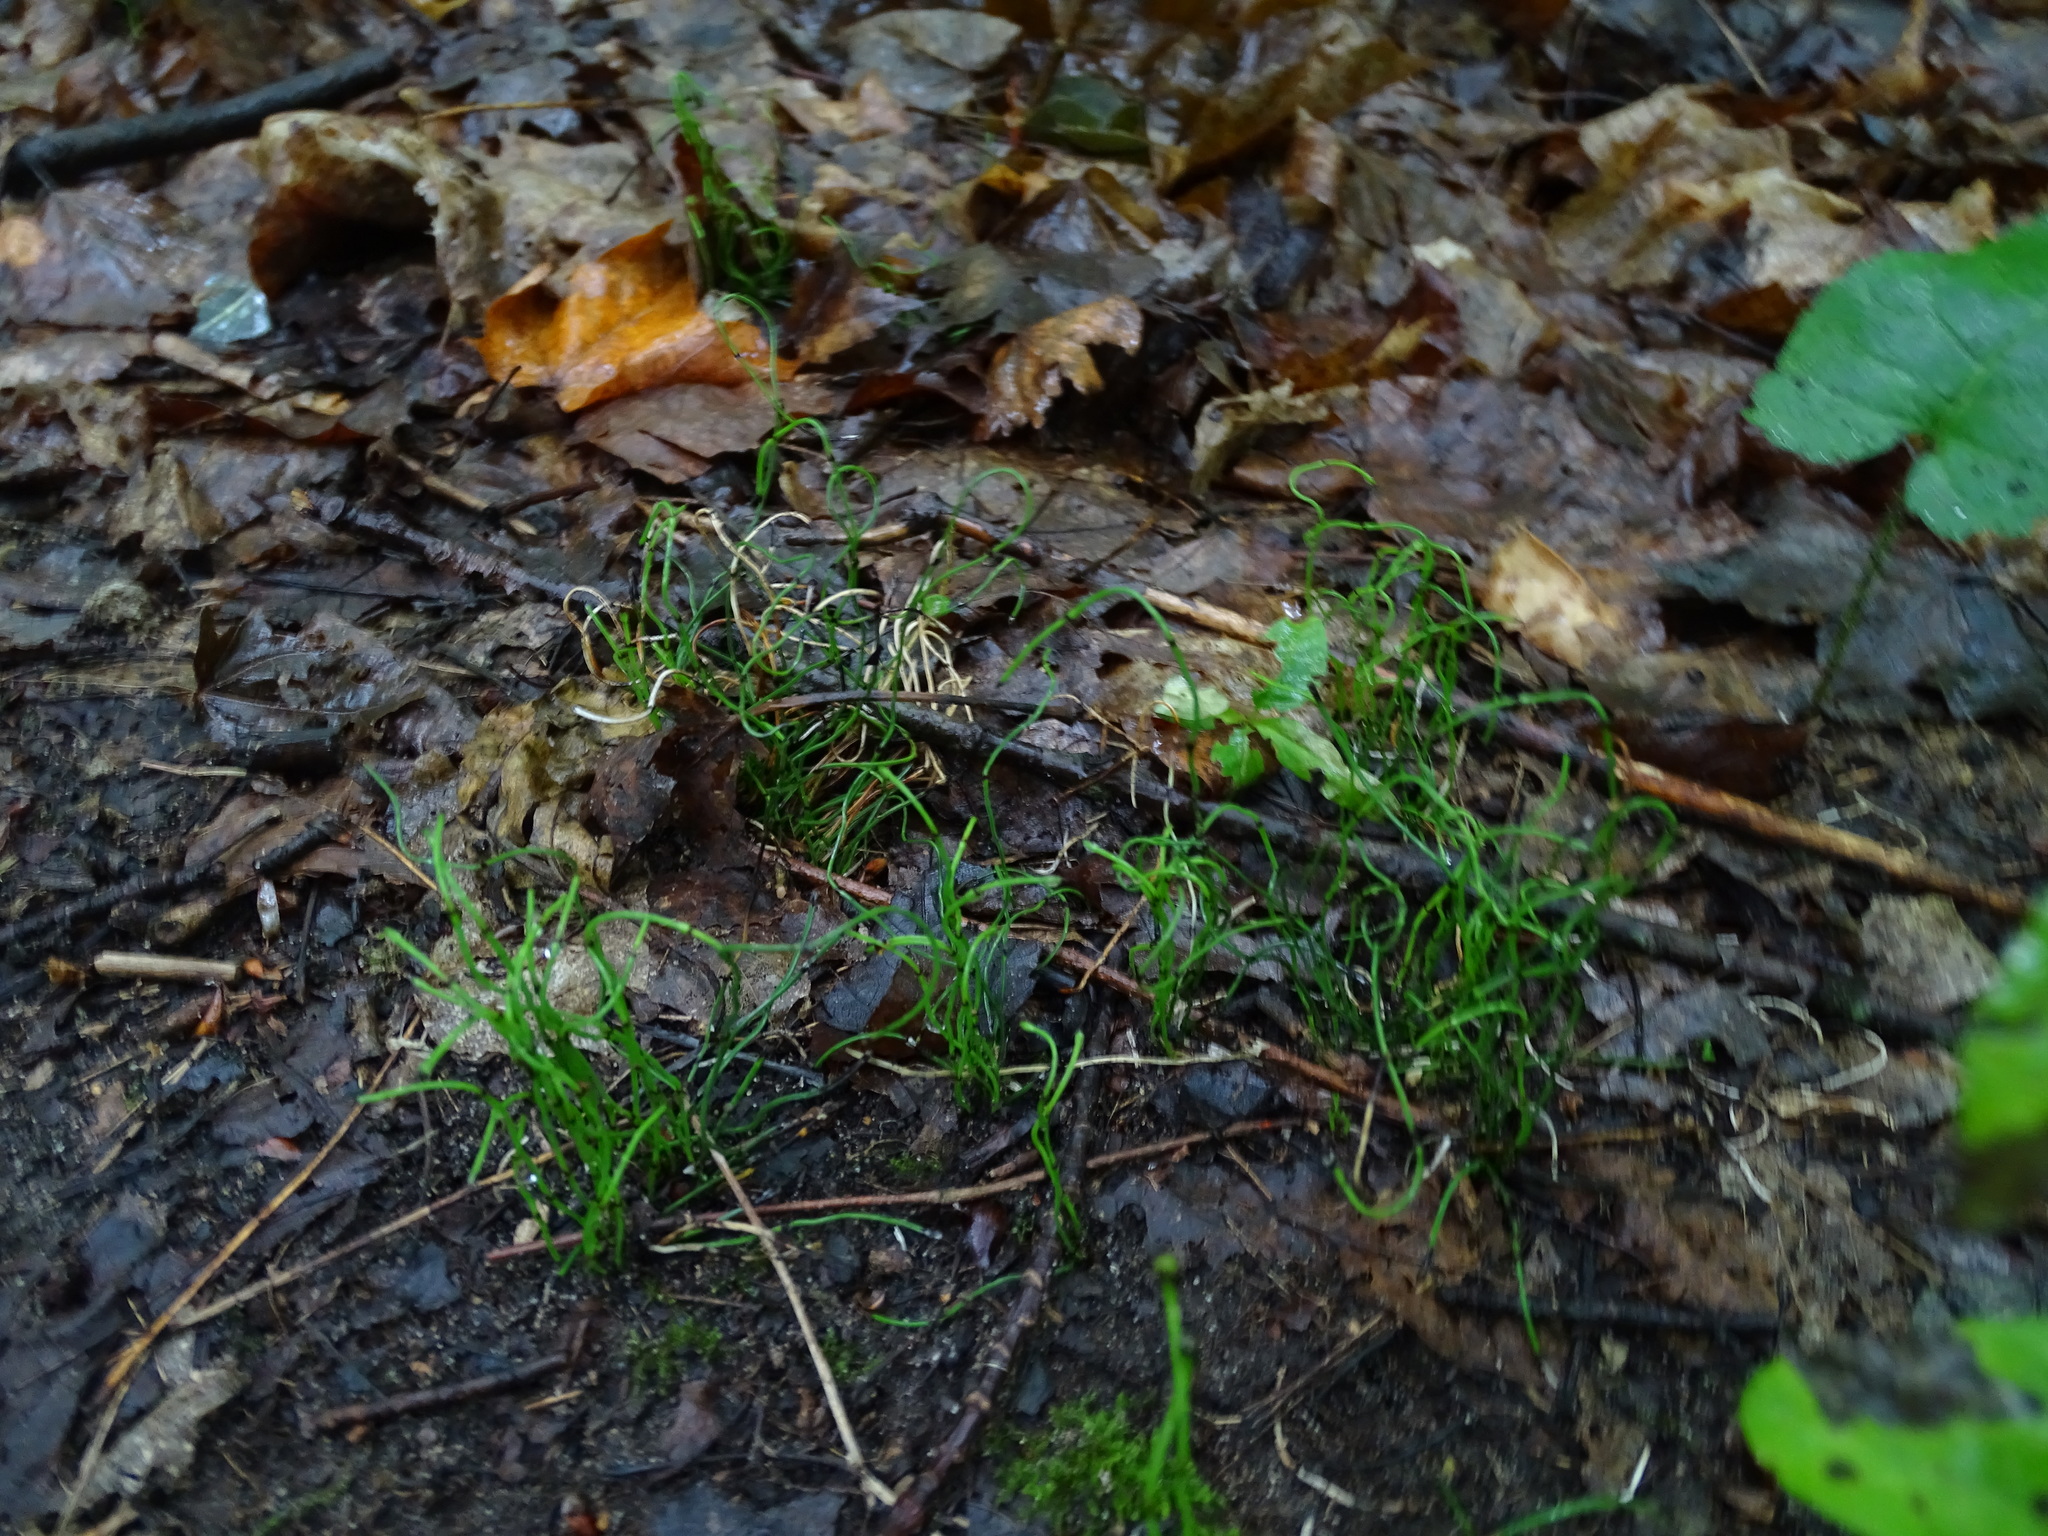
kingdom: Plantae
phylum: Tracheophyta
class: Polypodiopsida
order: Equisetales
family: Equisetaceae
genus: Equisetum
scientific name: Equisetum scirpoides
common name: Delicate horsetail
